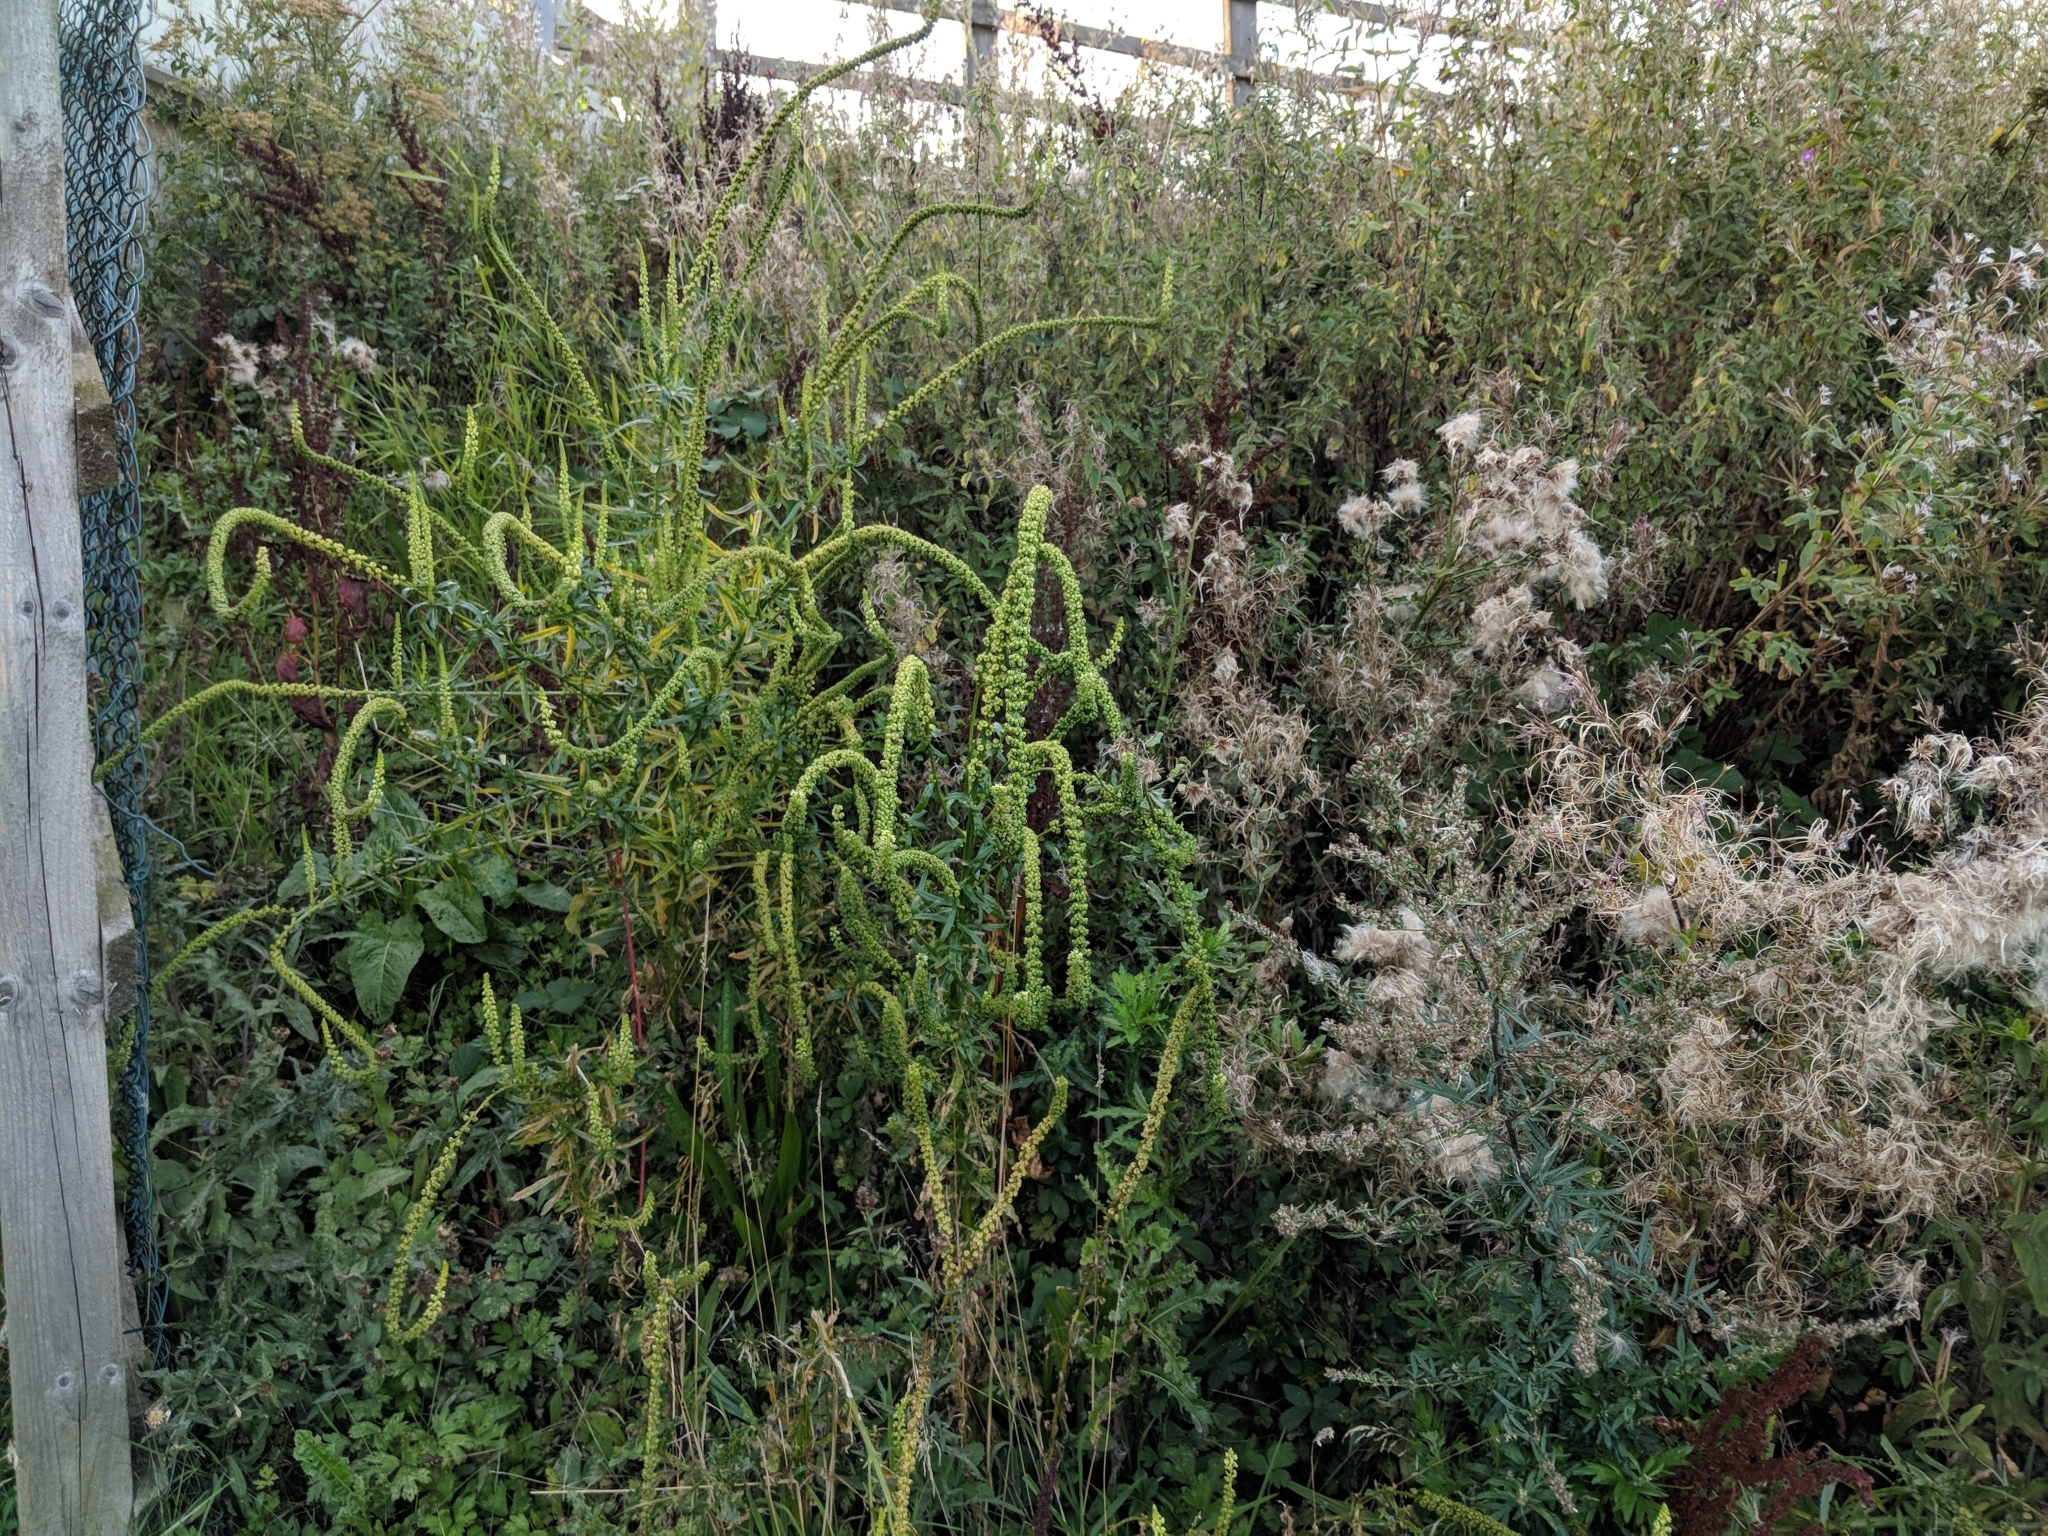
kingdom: Plantae
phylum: Tracheophyta
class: Magnoliopsida
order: Brassicales
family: Resedaceae
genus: Reseda
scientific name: Reseda luteola
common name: Weld
